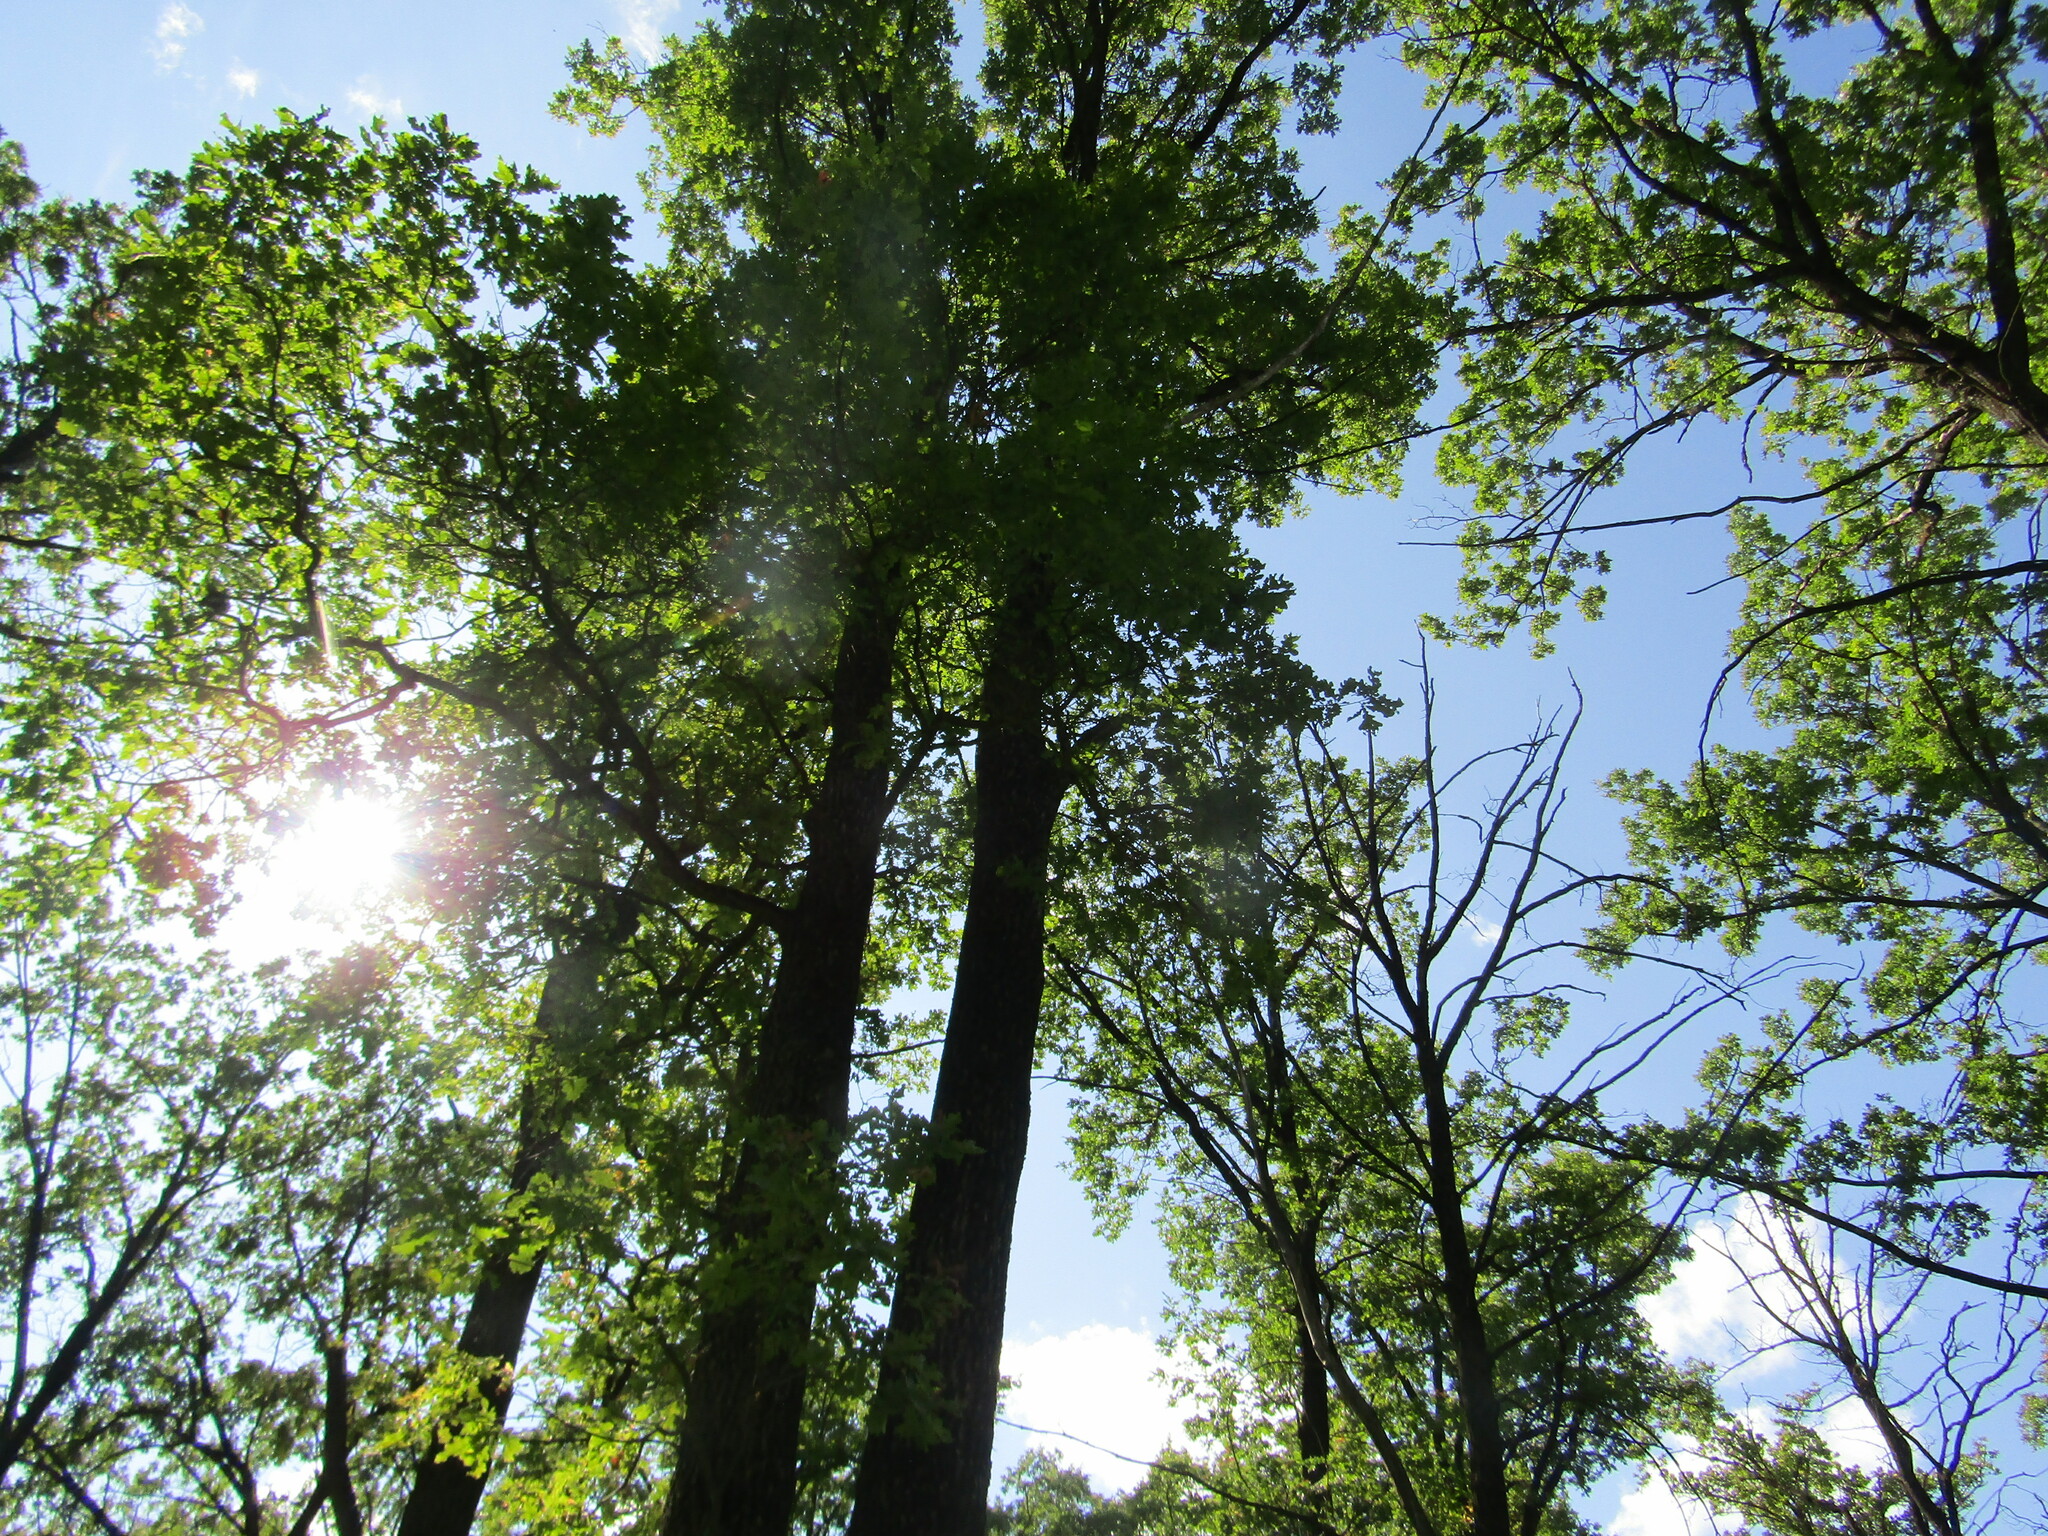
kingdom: Plantae
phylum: Tracheophyta
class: Magnoliopsida
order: Fagales
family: Fagaceae
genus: Quercus
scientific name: Quercus robur
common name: Pedunculate oak
